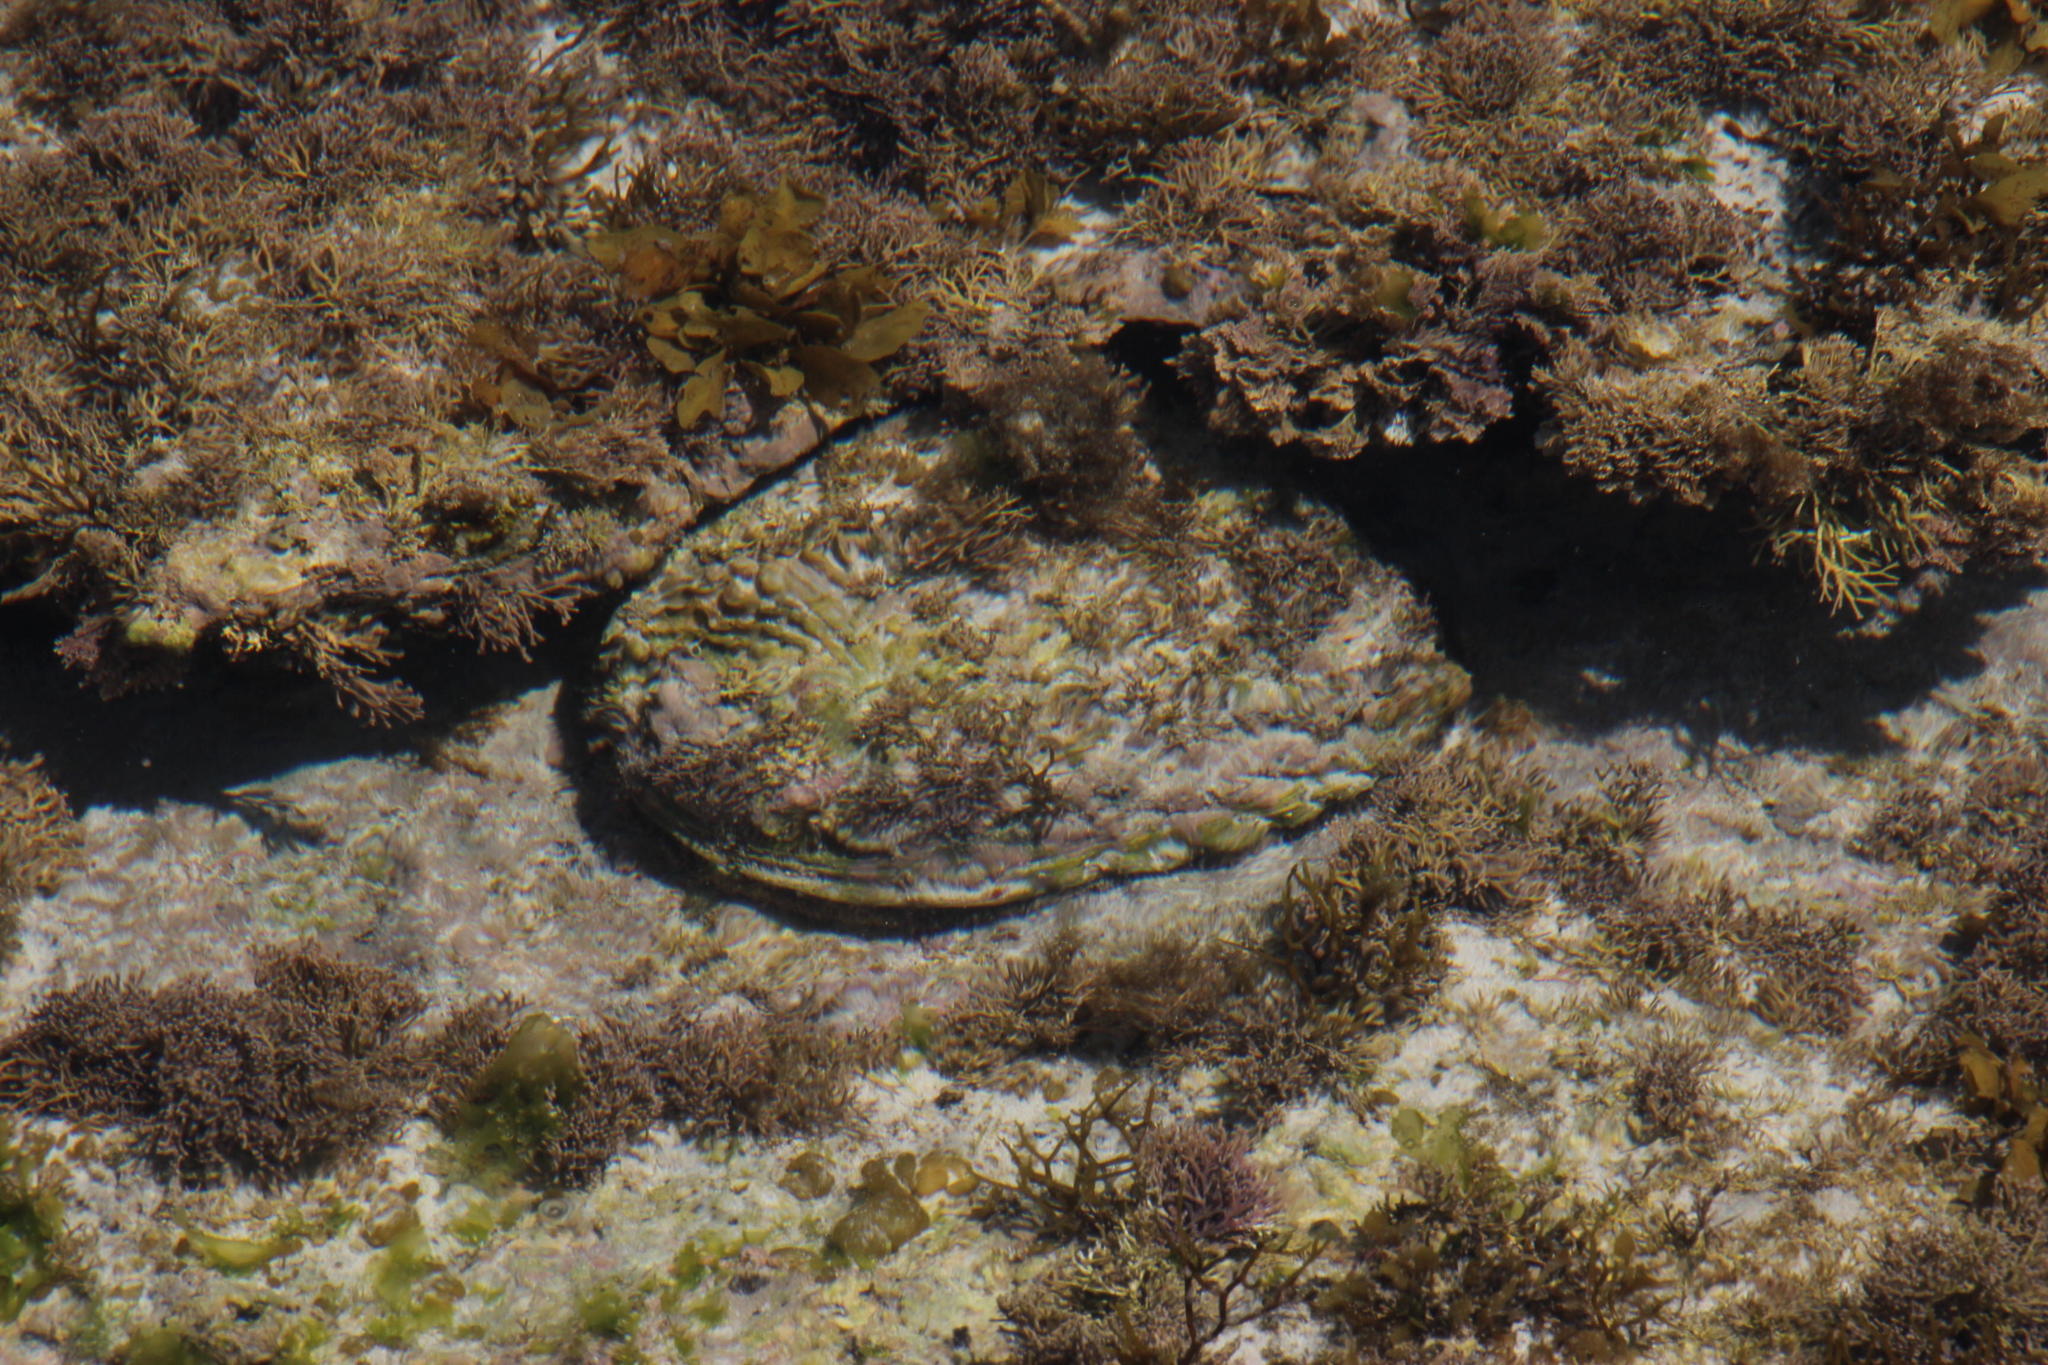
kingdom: Animalia
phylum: Mollusca
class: Gastropoda
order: Lepetellida
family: Haliotidae
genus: Haliotis
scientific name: Haliotis midae
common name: Perlemoen
